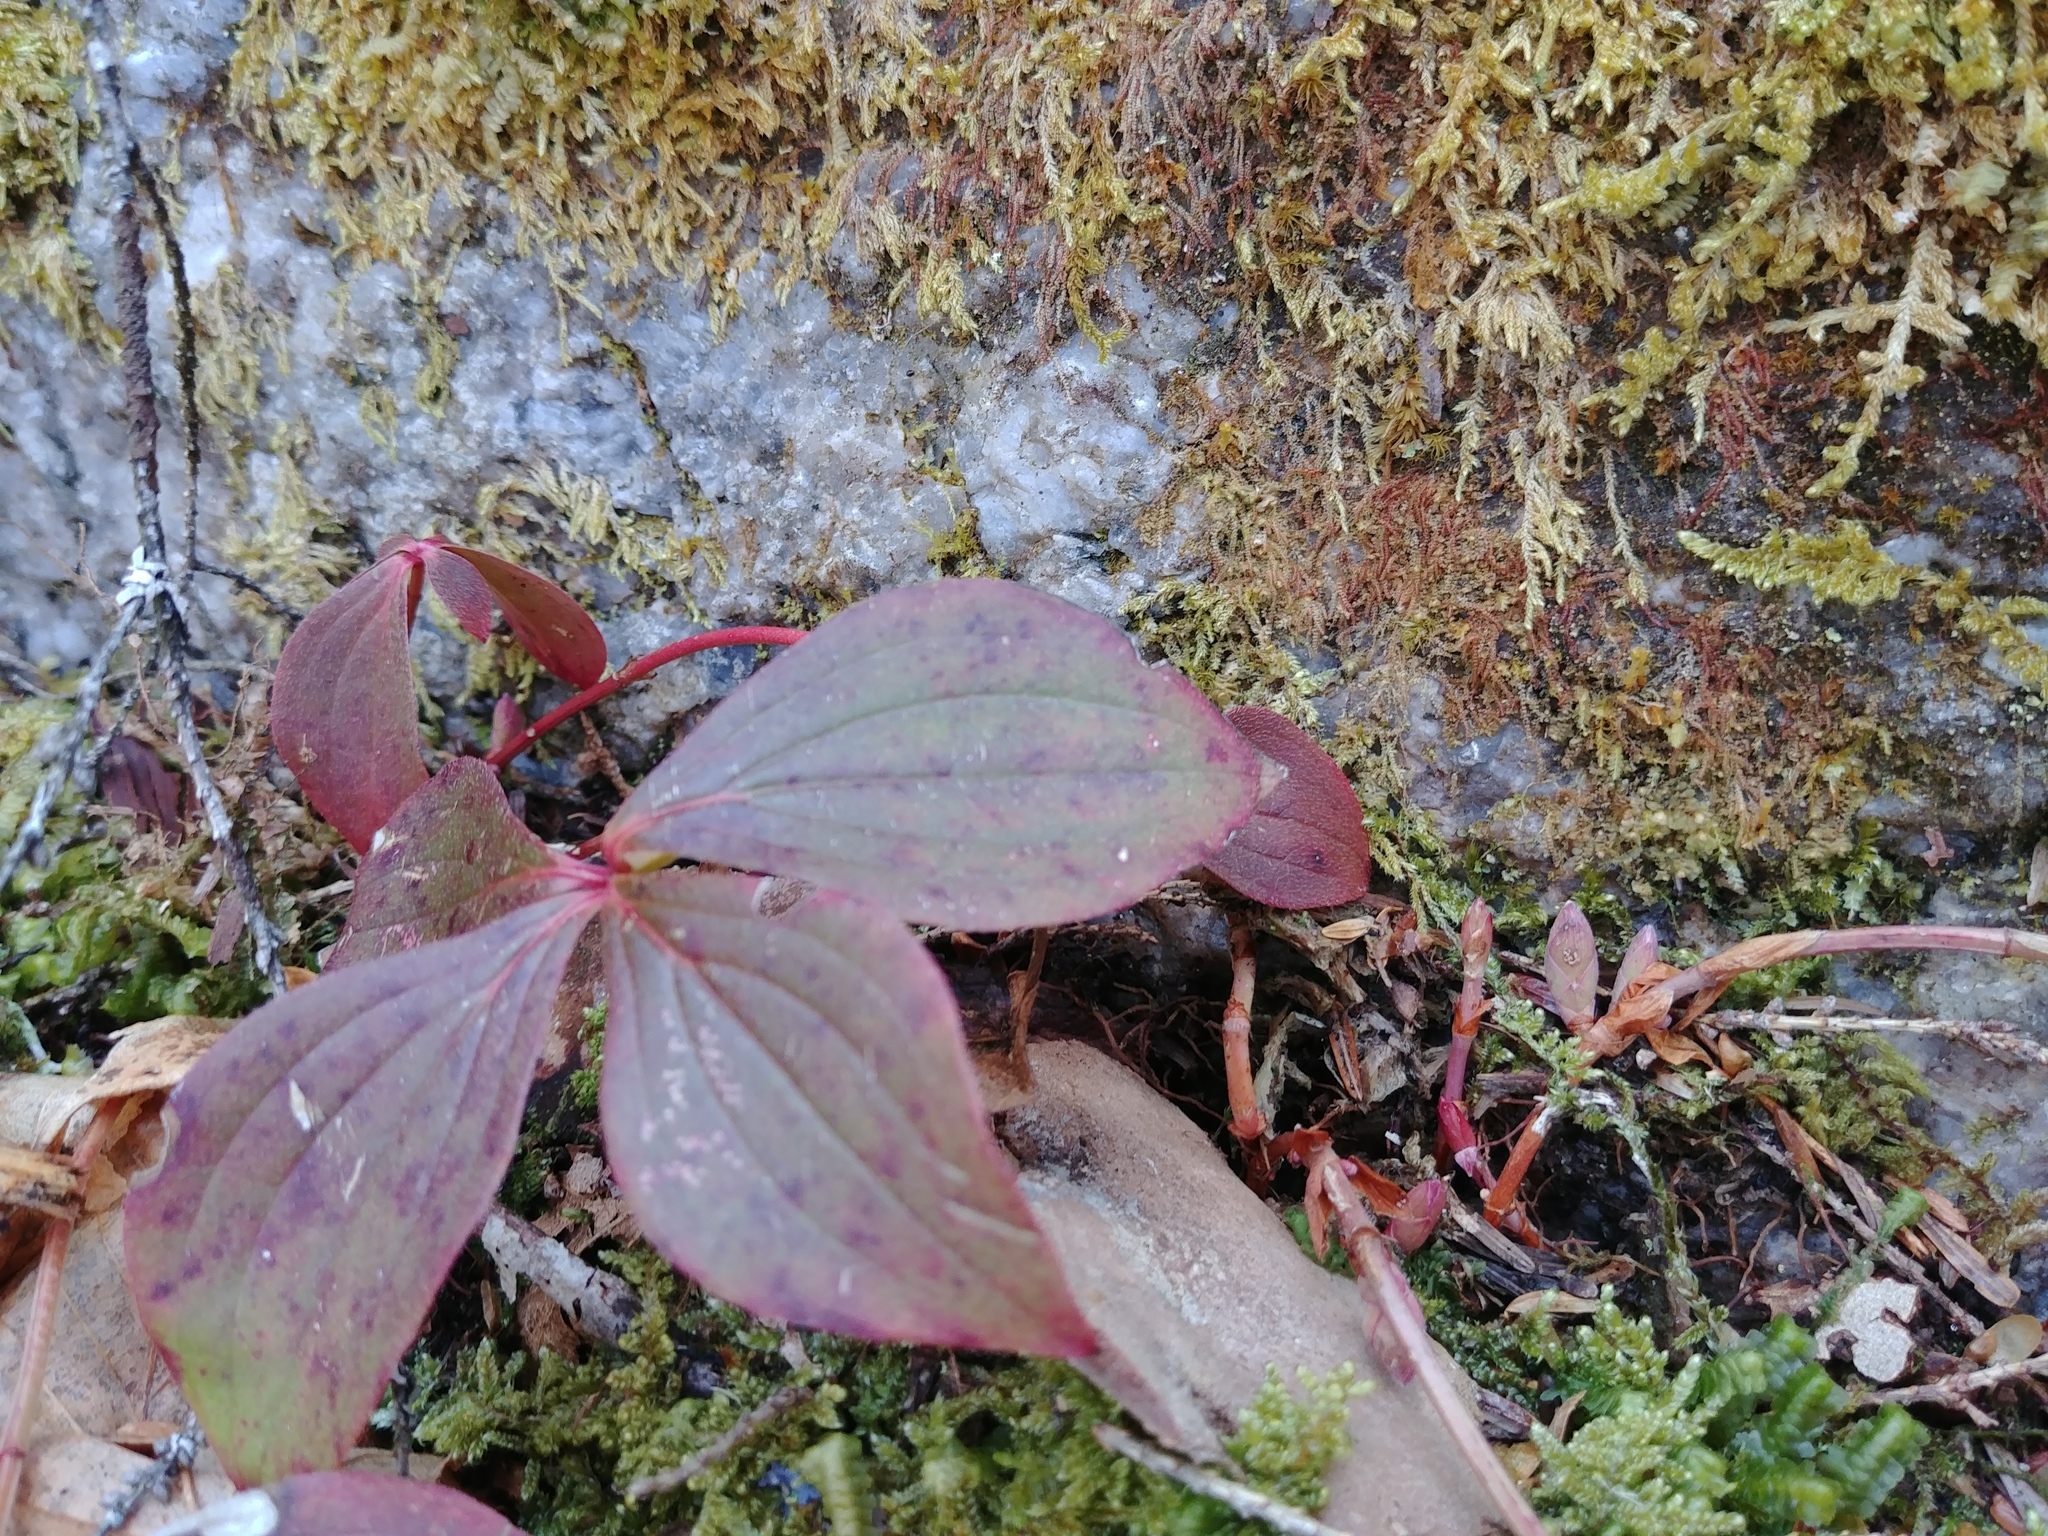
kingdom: Plantae
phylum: Tracheophyta
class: Magnoliopsida
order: Cornales
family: Cornaceae
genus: Cornus
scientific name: Cornus canadensis
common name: Creeping dogwood
